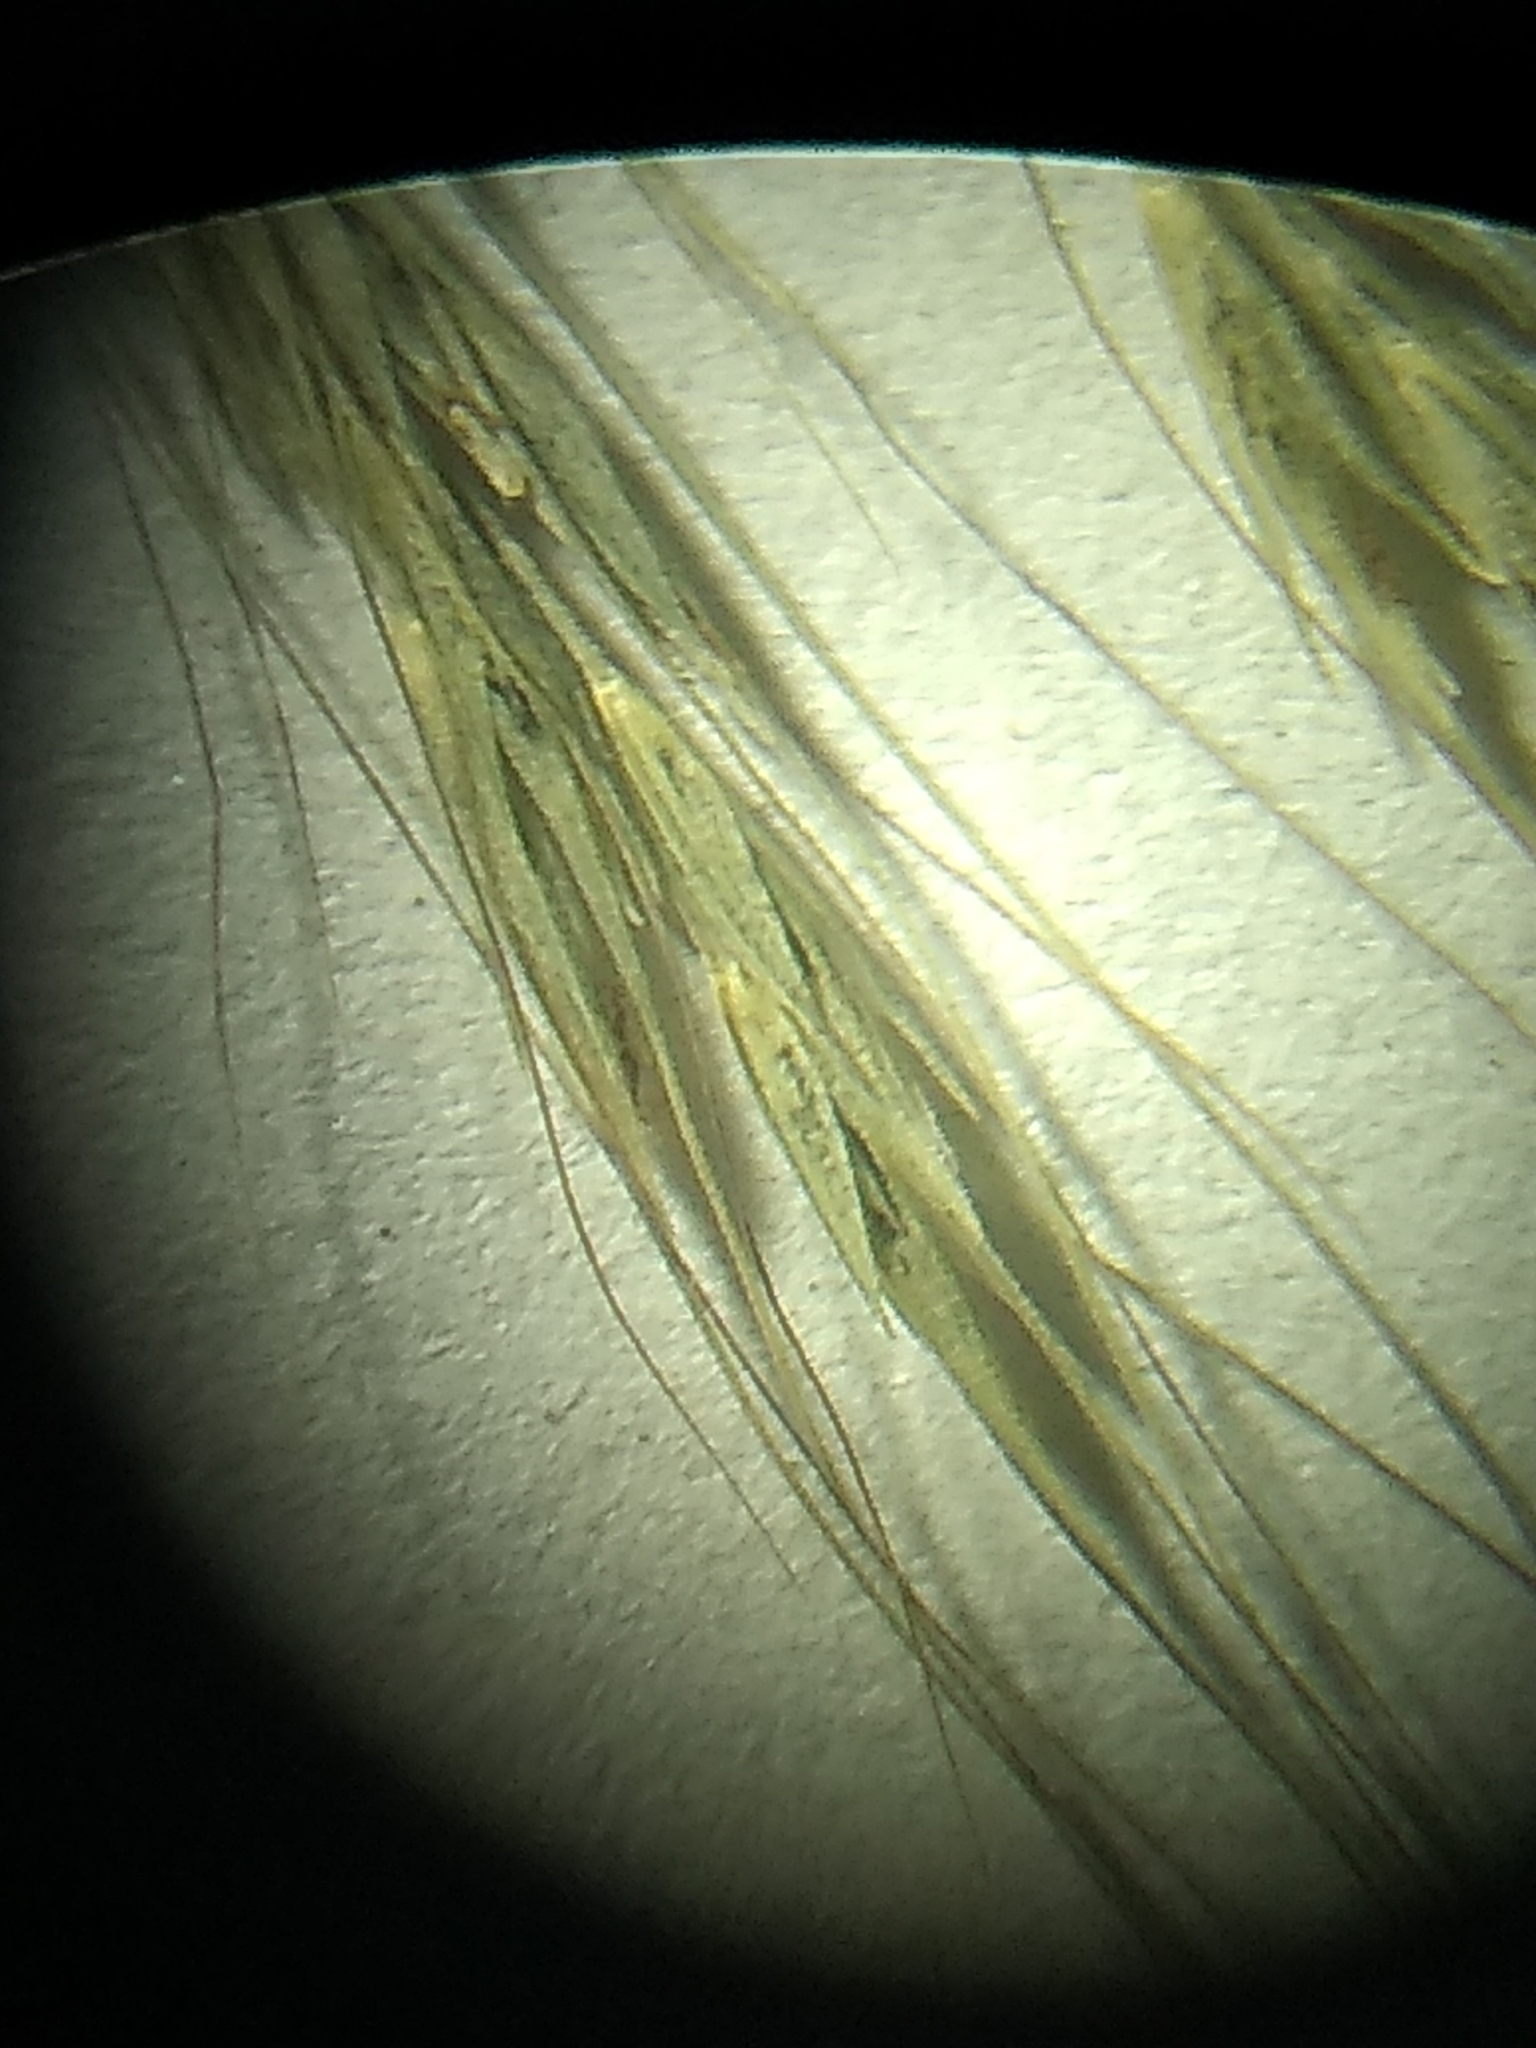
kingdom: Plantae
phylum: Tracheophyta
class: Liliopsida
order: Poales
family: Poaceae
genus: Muhlenbergia
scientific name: Muhlenbergia sylvatica
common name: Woodland muhly
